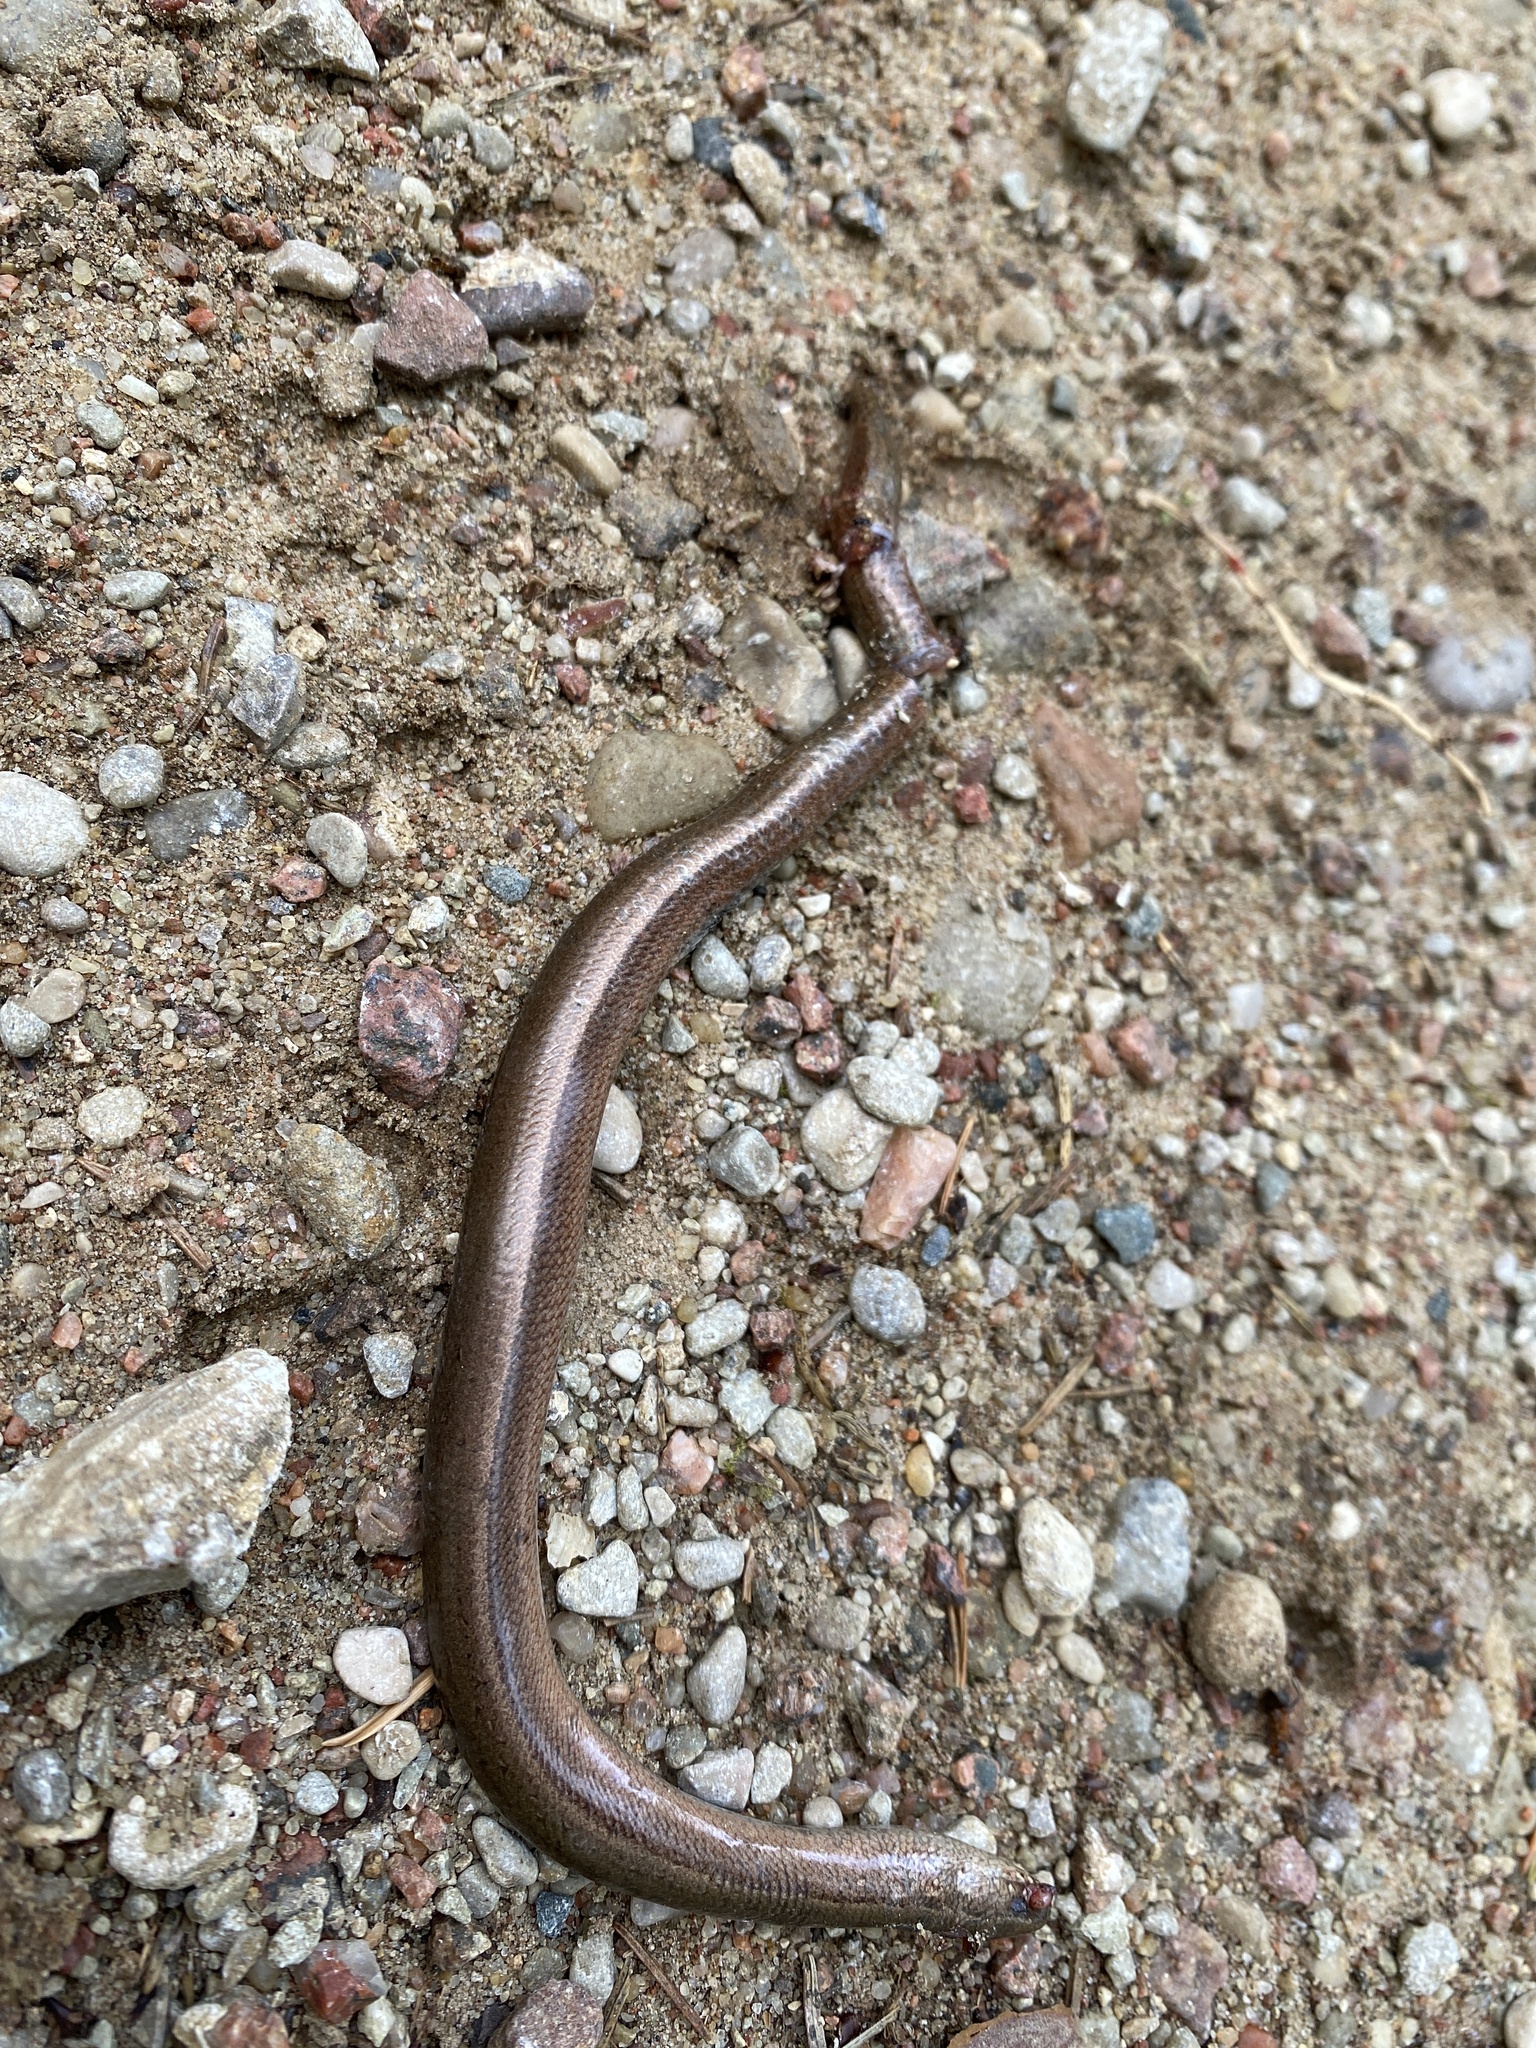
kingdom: Animalia
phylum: Chordata
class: Squamata
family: Anguidae
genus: Anguis
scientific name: Anguis fragilis
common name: Slow worm
